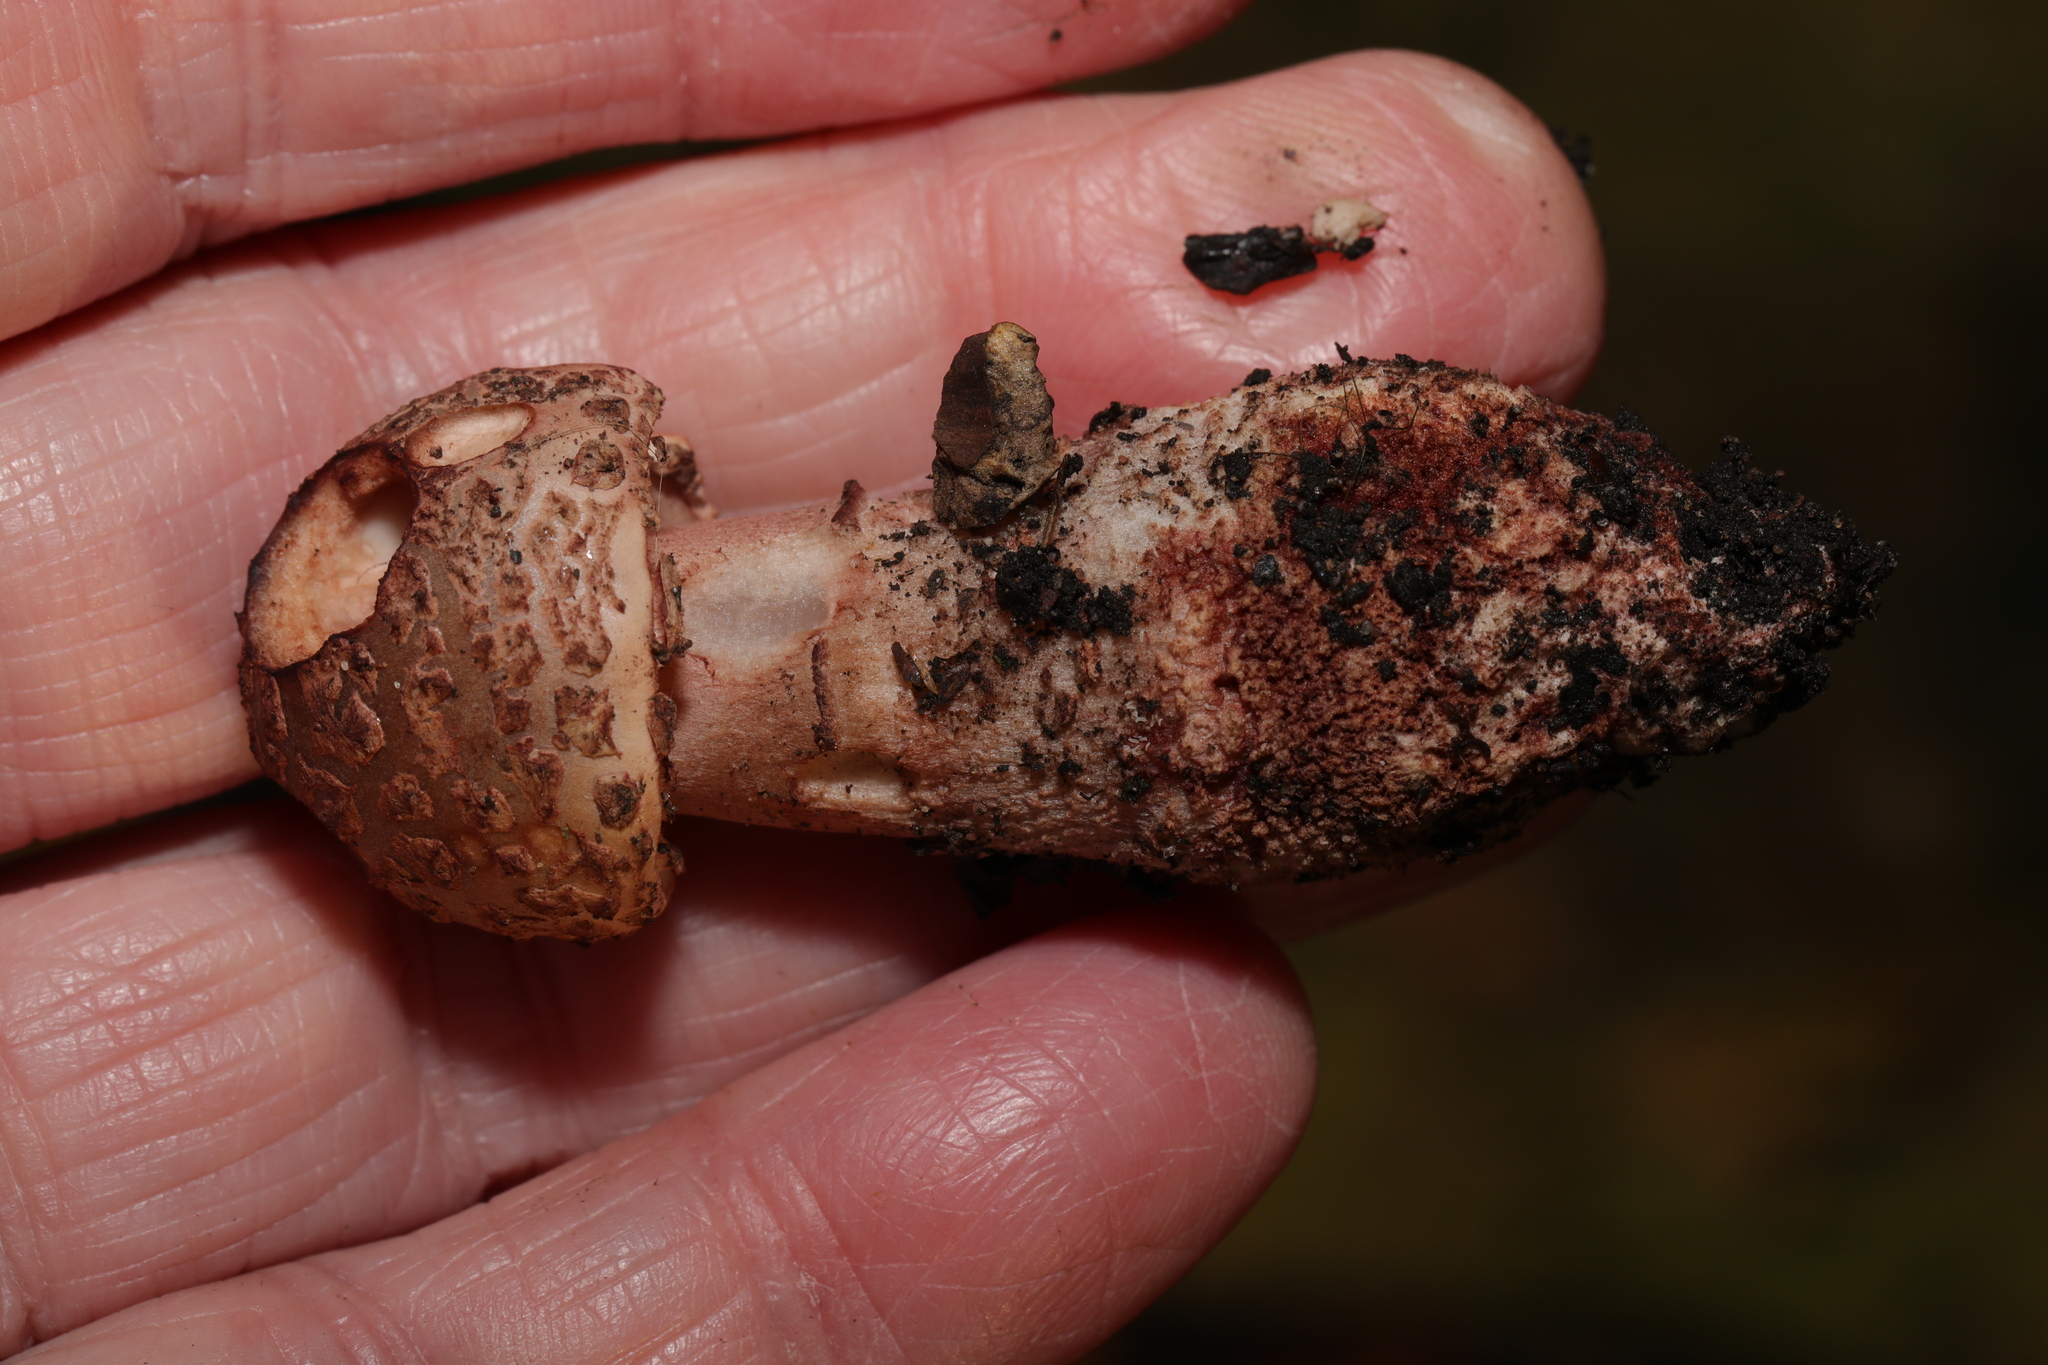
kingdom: Fungi
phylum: Basidiomycota
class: Agaricomycetes
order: Agaricales
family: Amanitaceae
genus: Amanita
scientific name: Amanita rubescens
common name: Blusher
